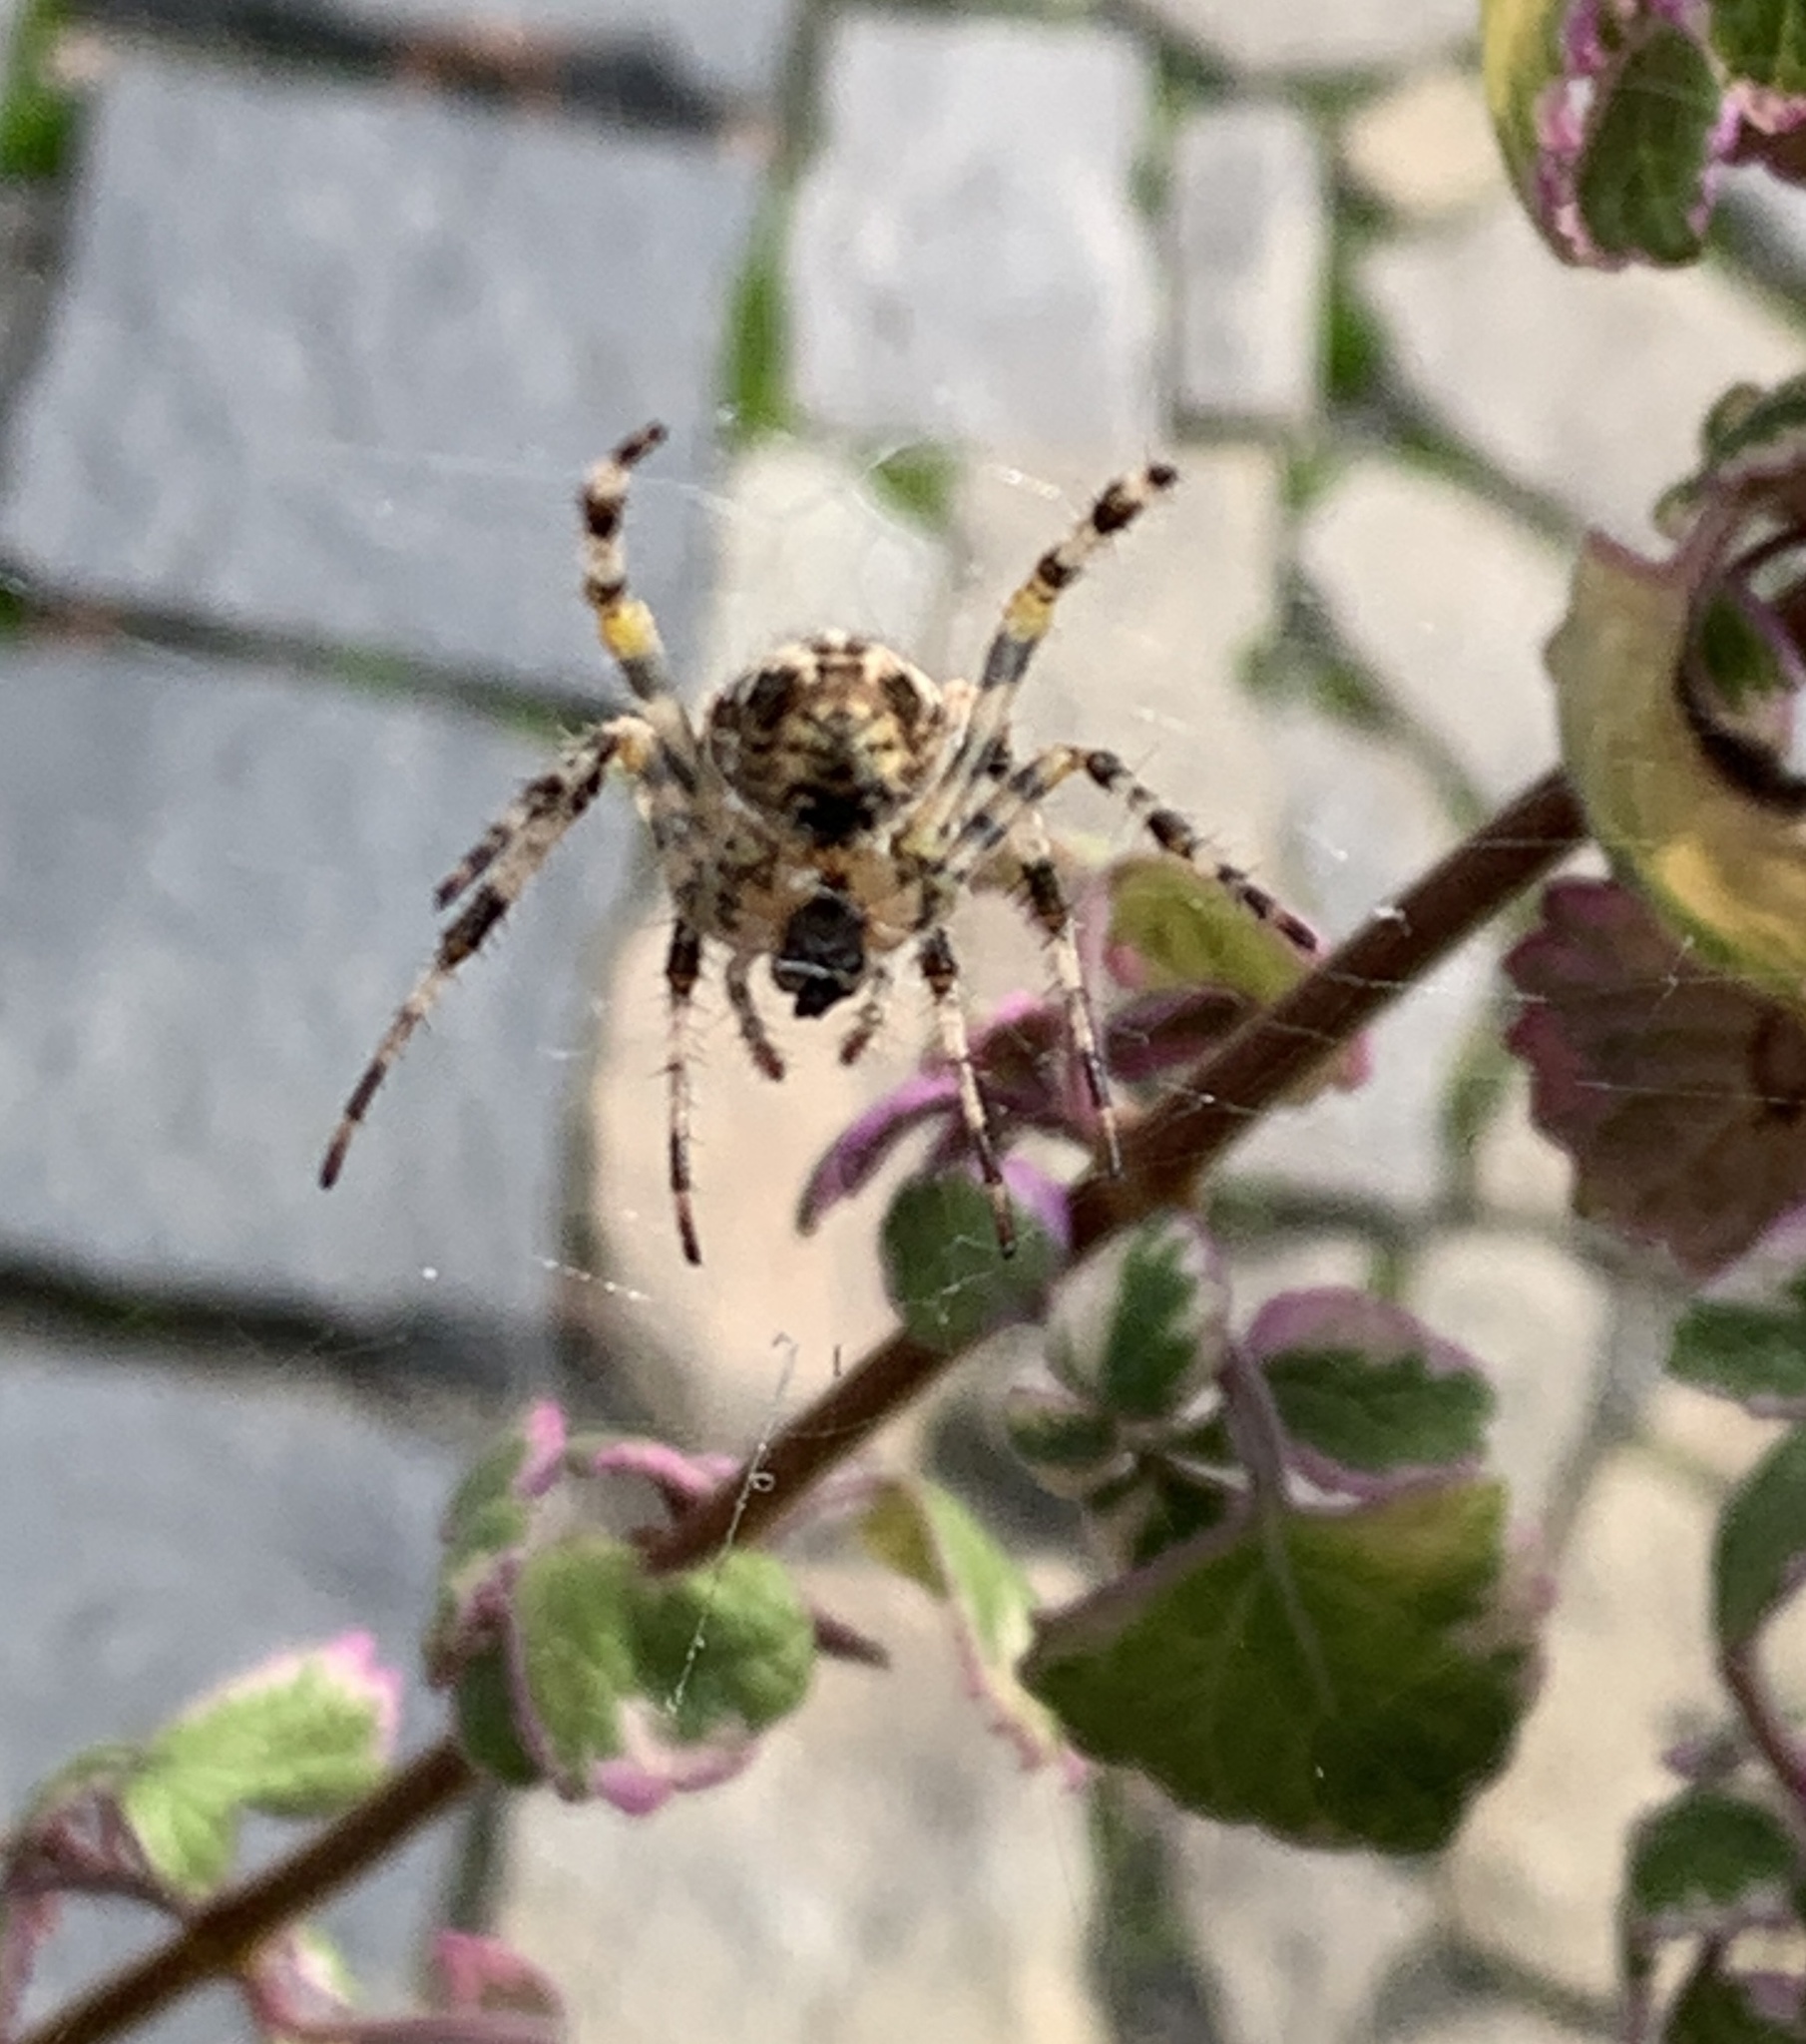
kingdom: Animalia
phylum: Arthropoda
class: Arachnida
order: Araneae
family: Araneidae
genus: Araneus
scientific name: Araneus diadematus
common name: Cross orbweaver
